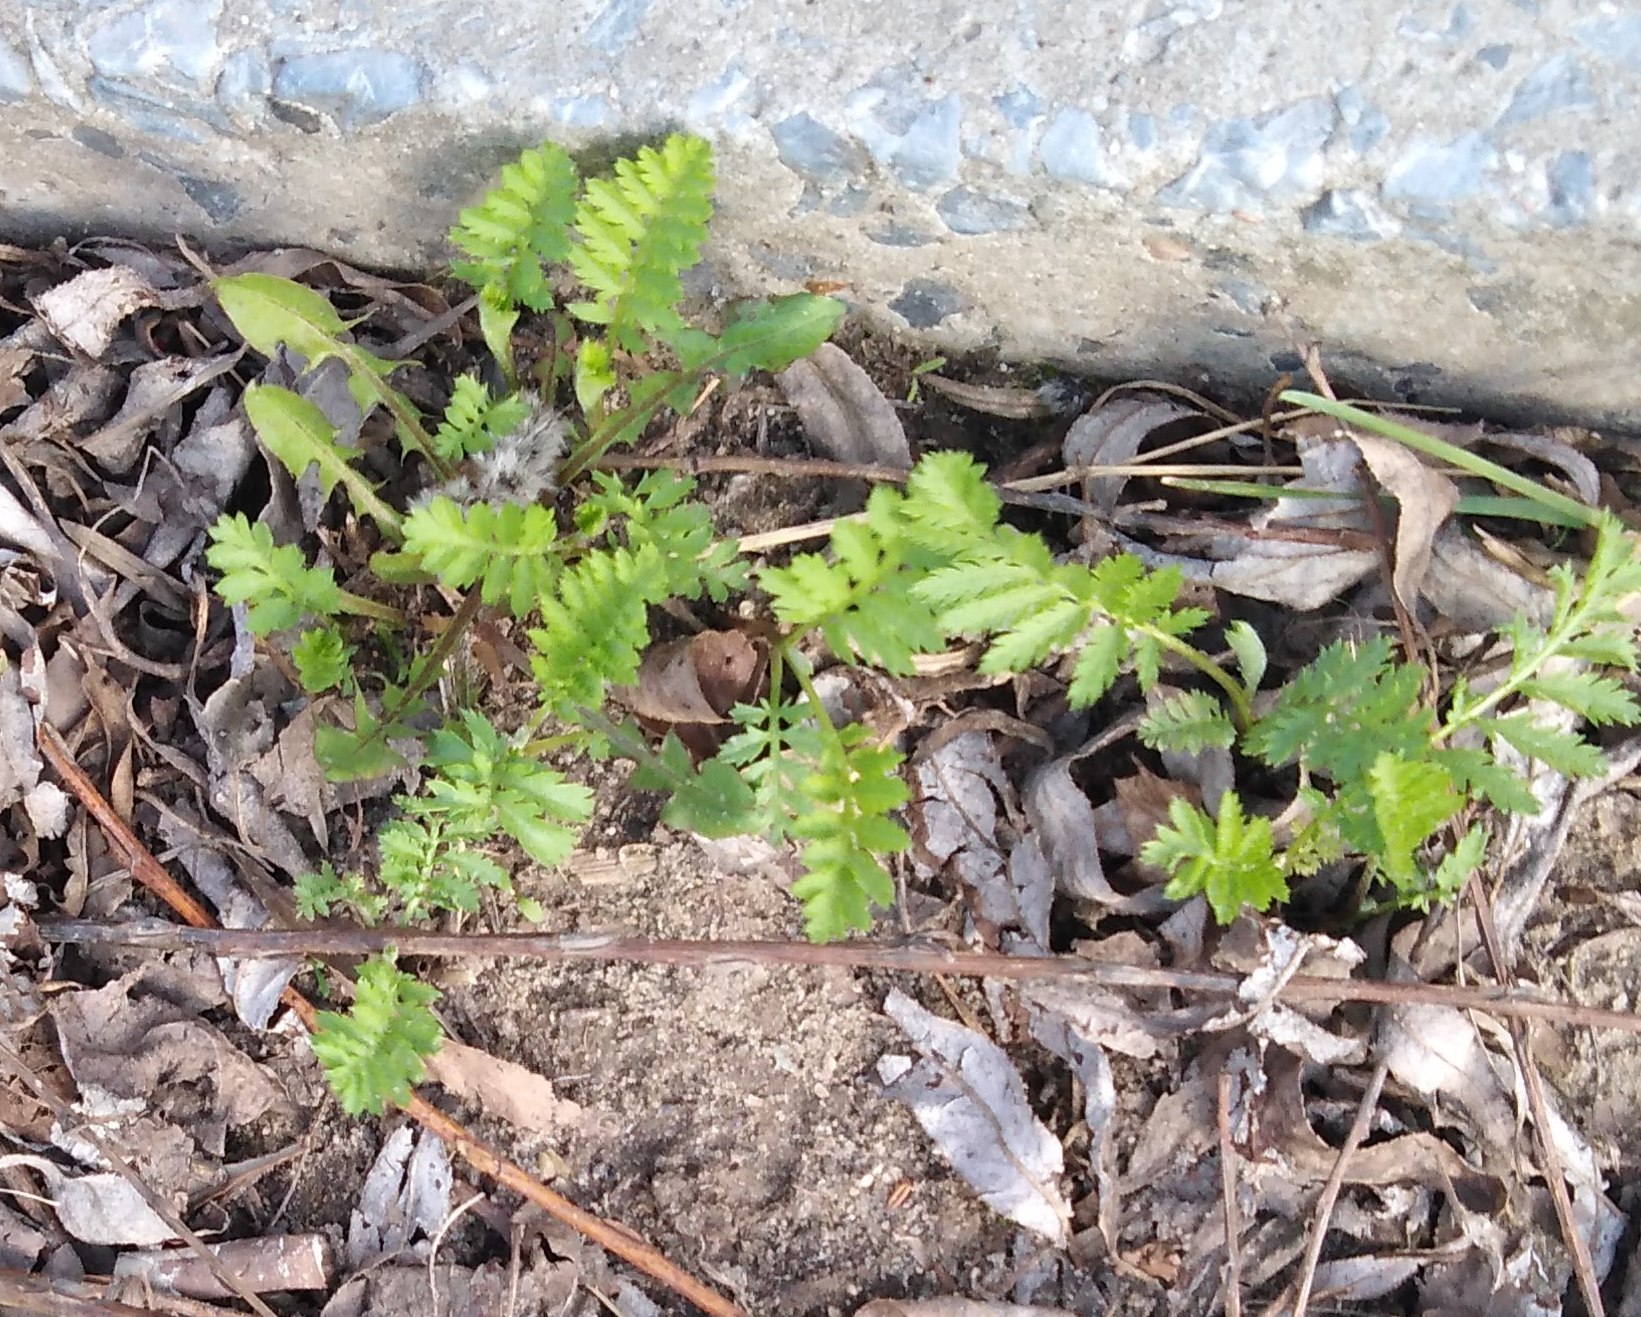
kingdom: Plantae
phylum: Tracheophyta
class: Magnoliopsida
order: Asterales
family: Asteraceae
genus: Tanacetum
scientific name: Tanacetum vulgare
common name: Common tansy
